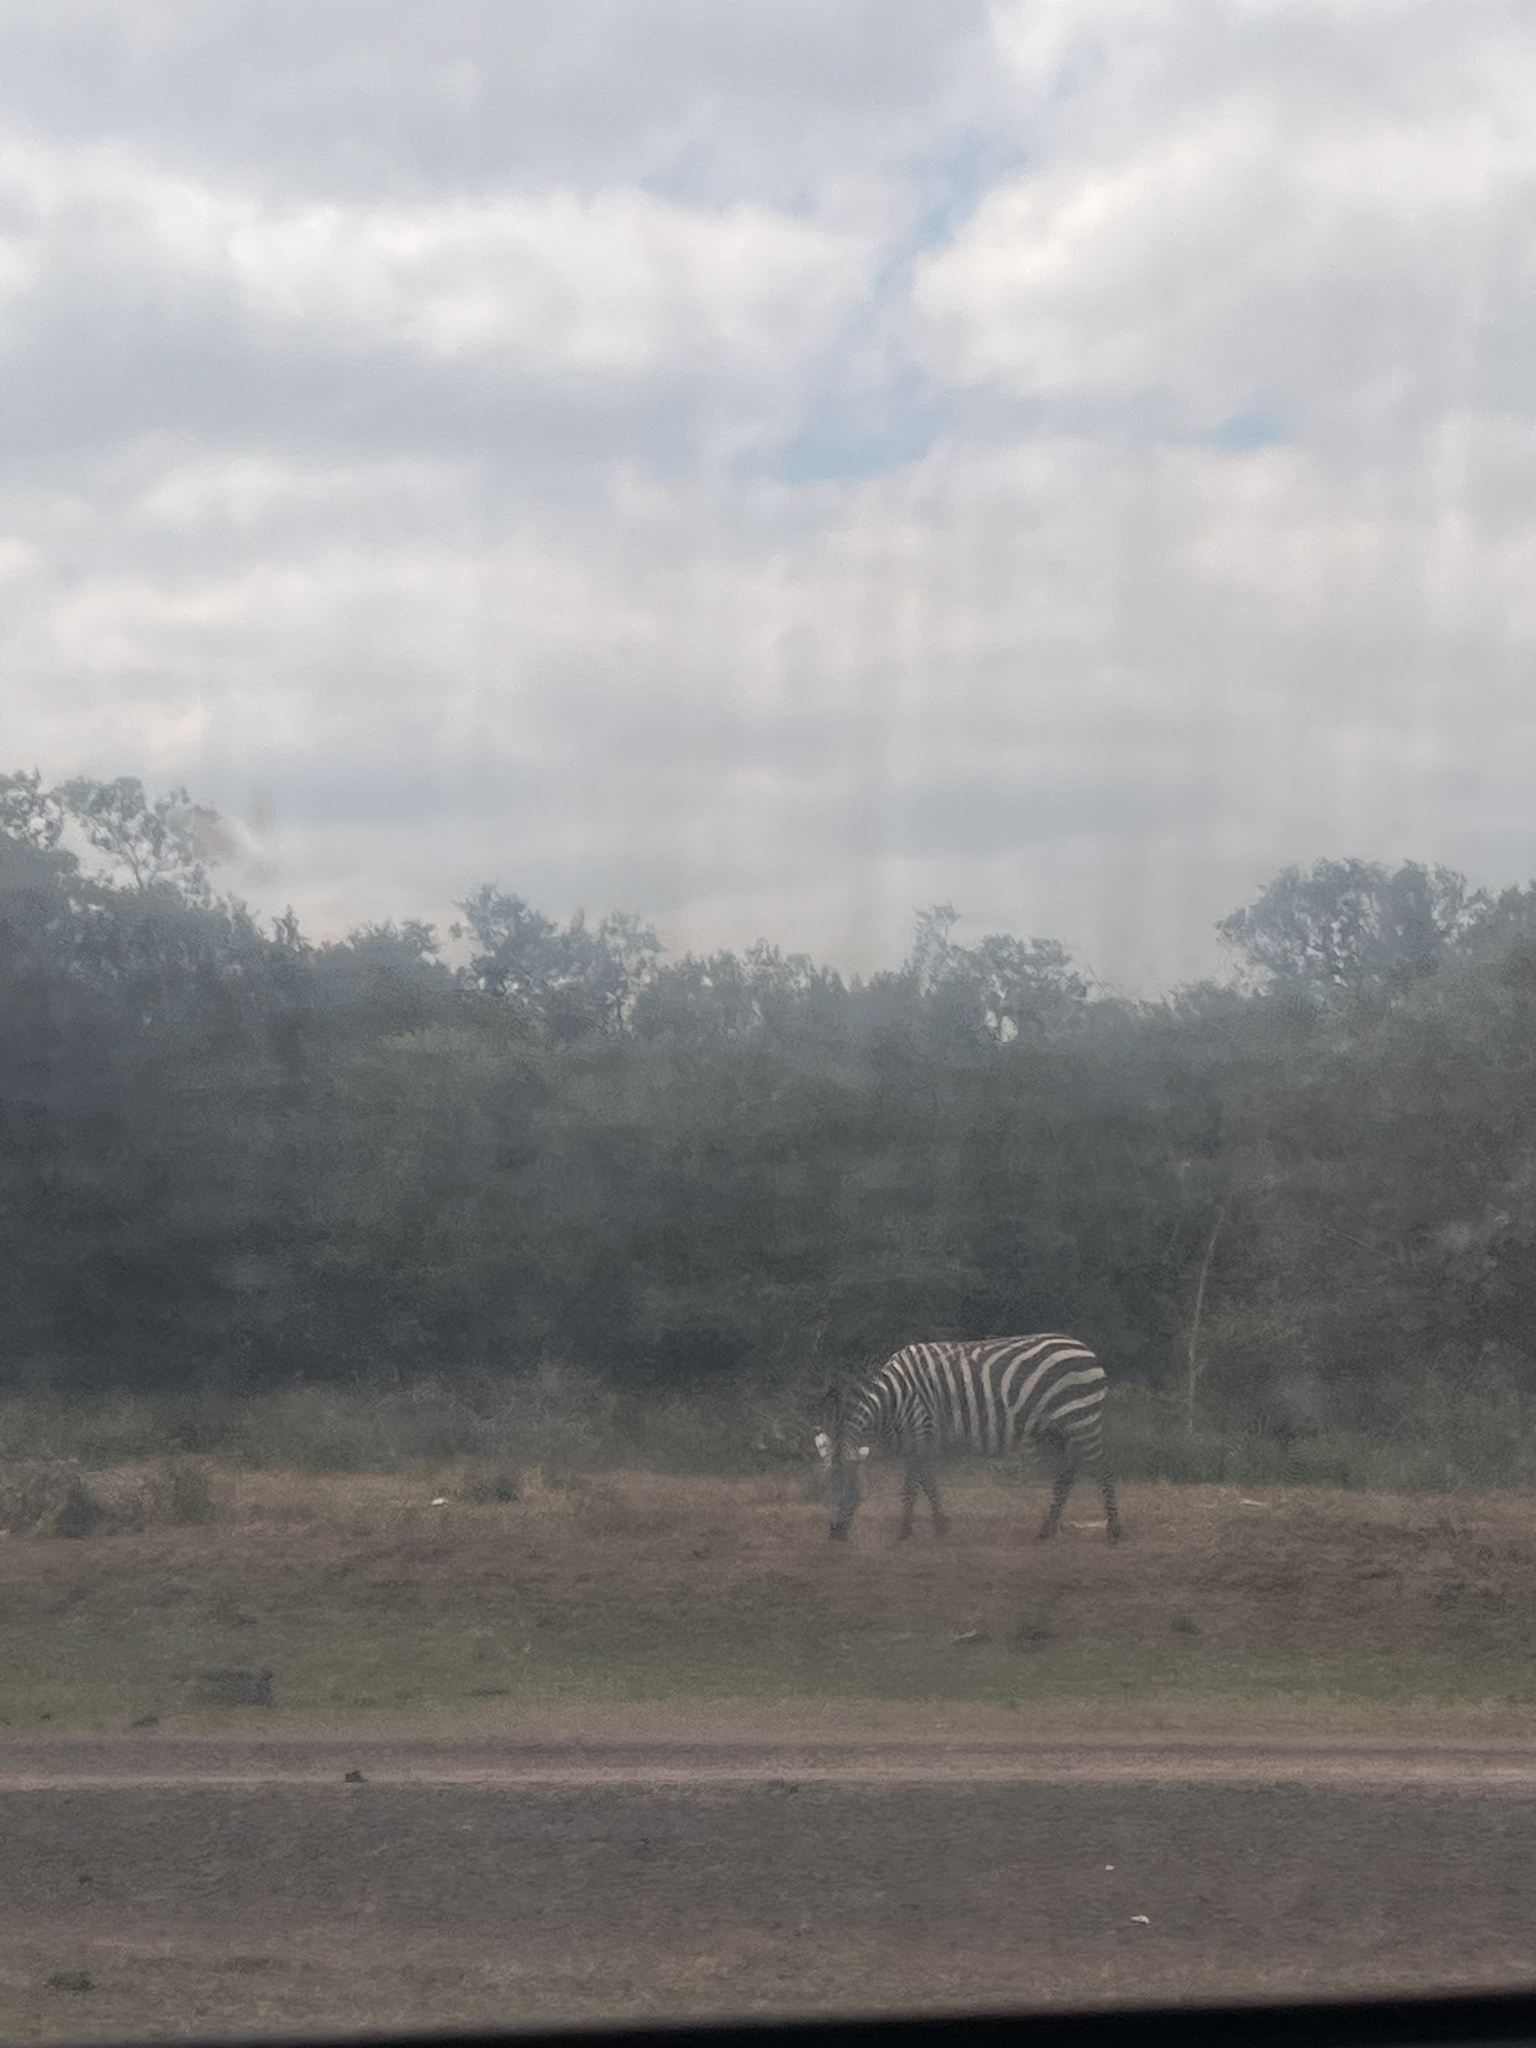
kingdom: Animalia
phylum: Chordata
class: Mammalia
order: Perissodactyla
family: Equidae
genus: Equus
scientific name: Equus quagga
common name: Plains zebra
